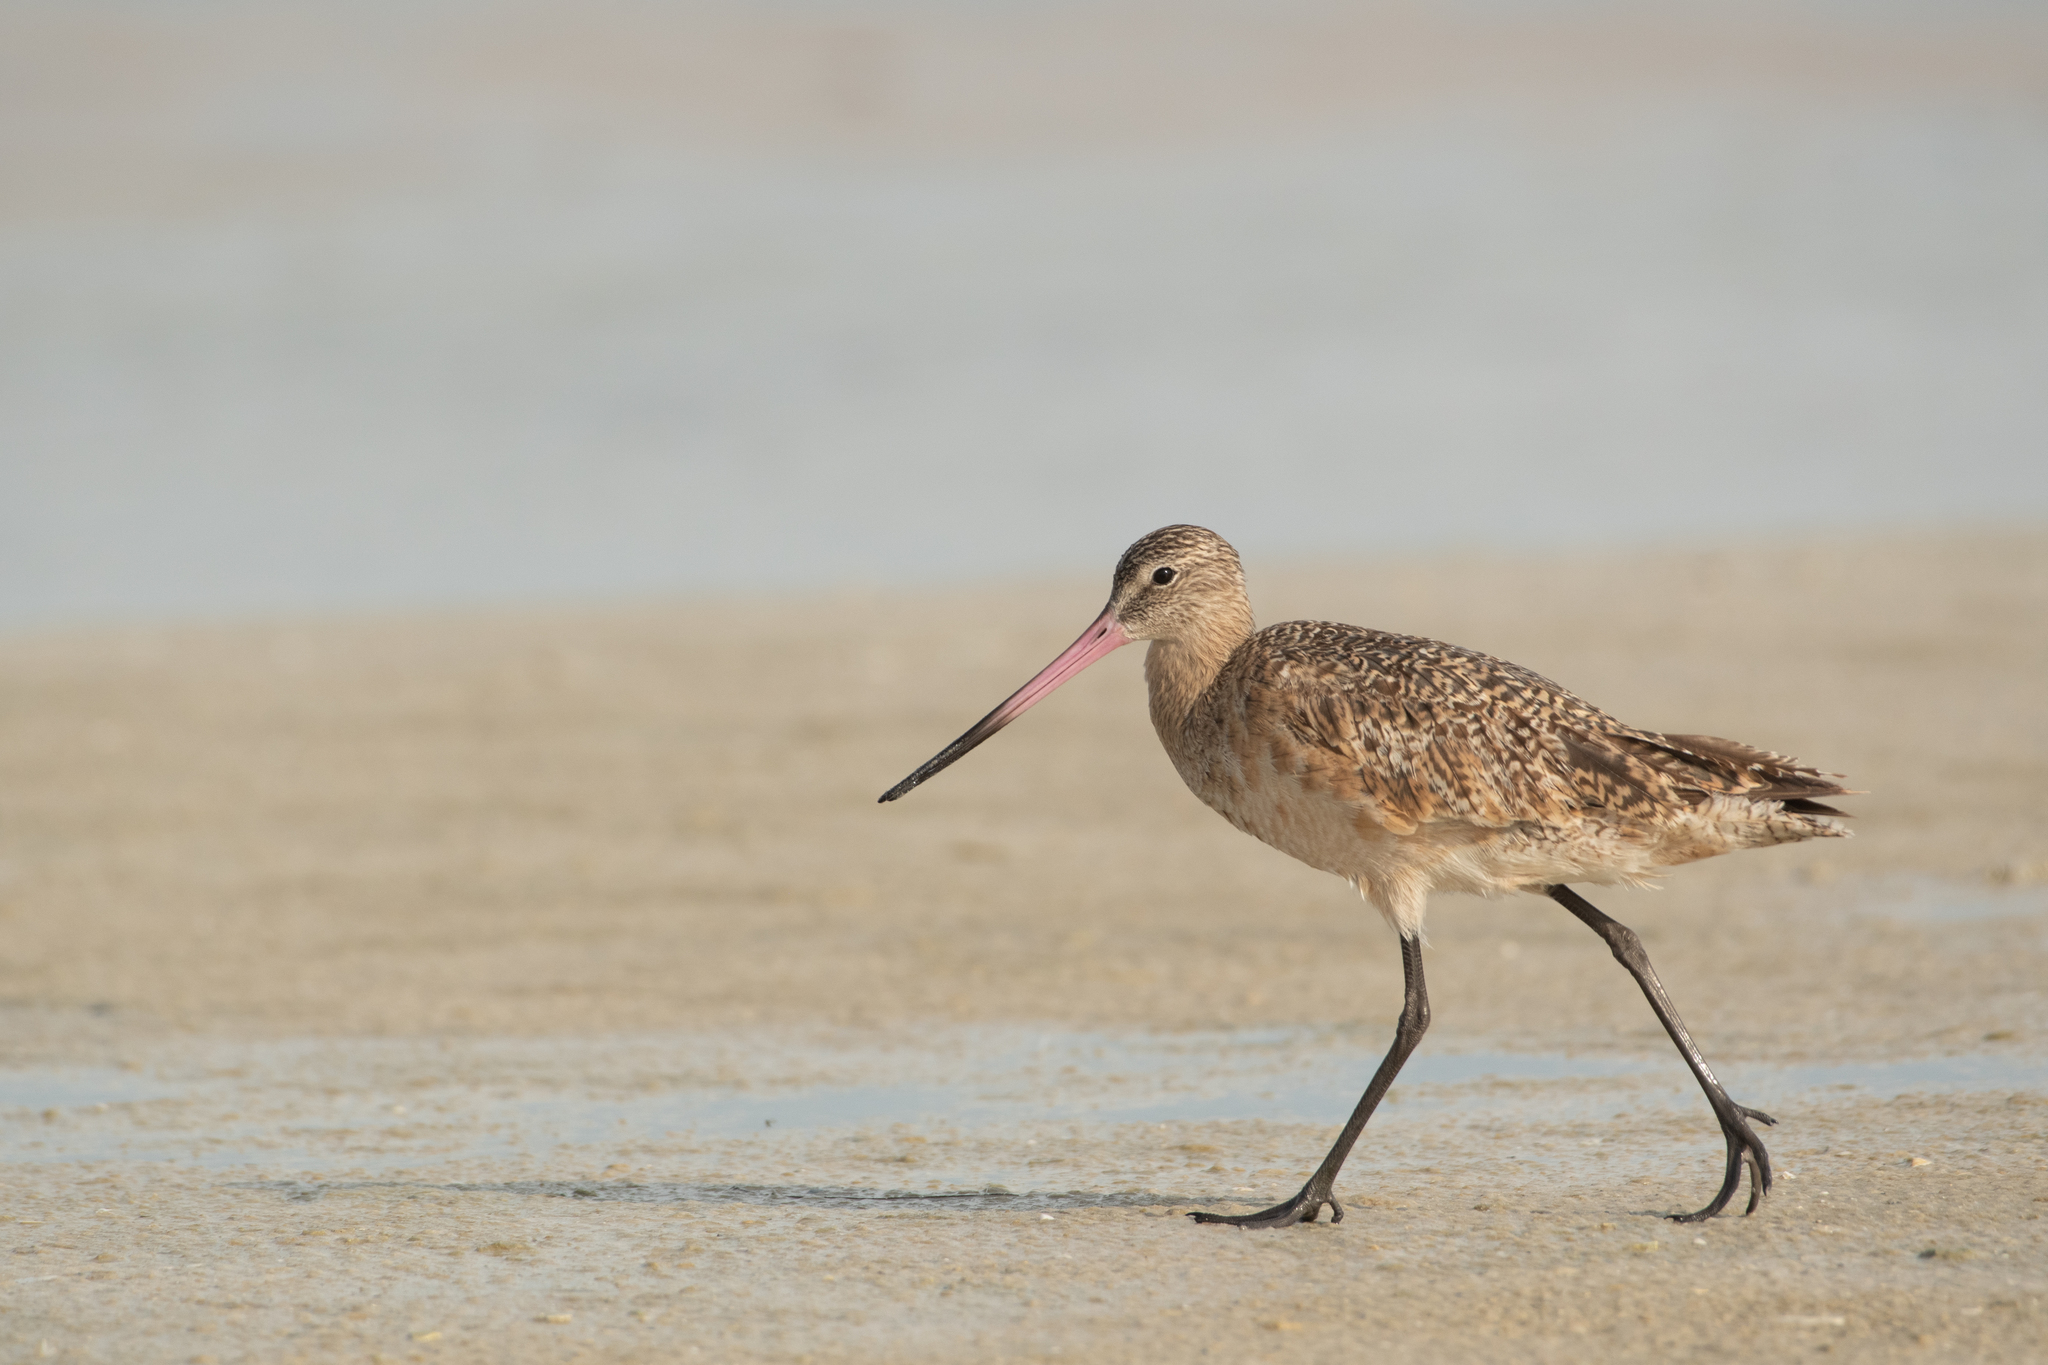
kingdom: Animalia
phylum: Chordata
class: Aves
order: Charadriiformes
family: Scolopacidae
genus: Limosa
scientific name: Limosa fedoa
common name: Marbled godwit
